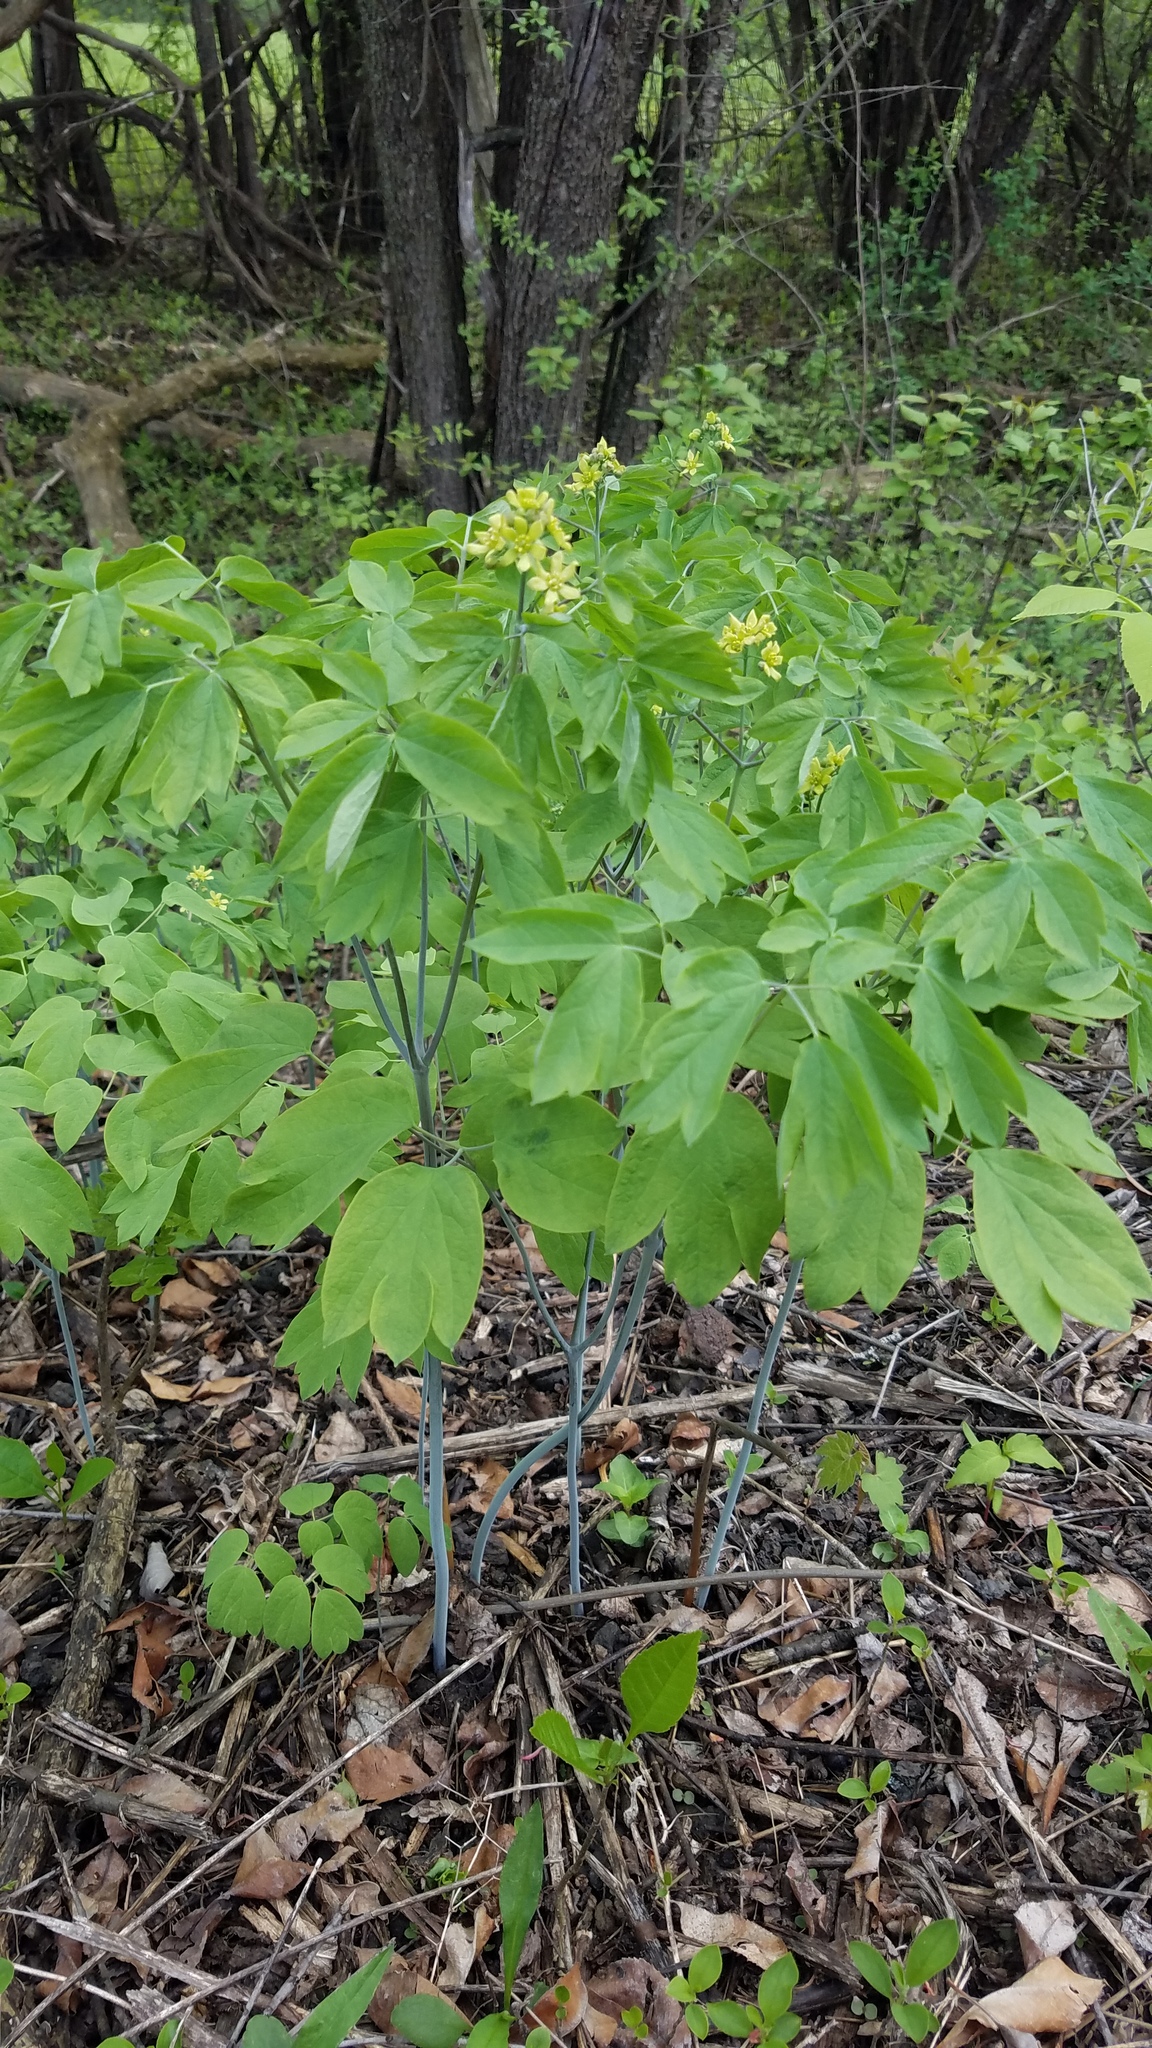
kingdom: Plantae
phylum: Tracheophyta
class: Magnoliopsida
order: Ranunculales
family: Berberidaceae
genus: Caulophyllum
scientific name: Caulophyllum thalictroides
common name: Blue cohosh
